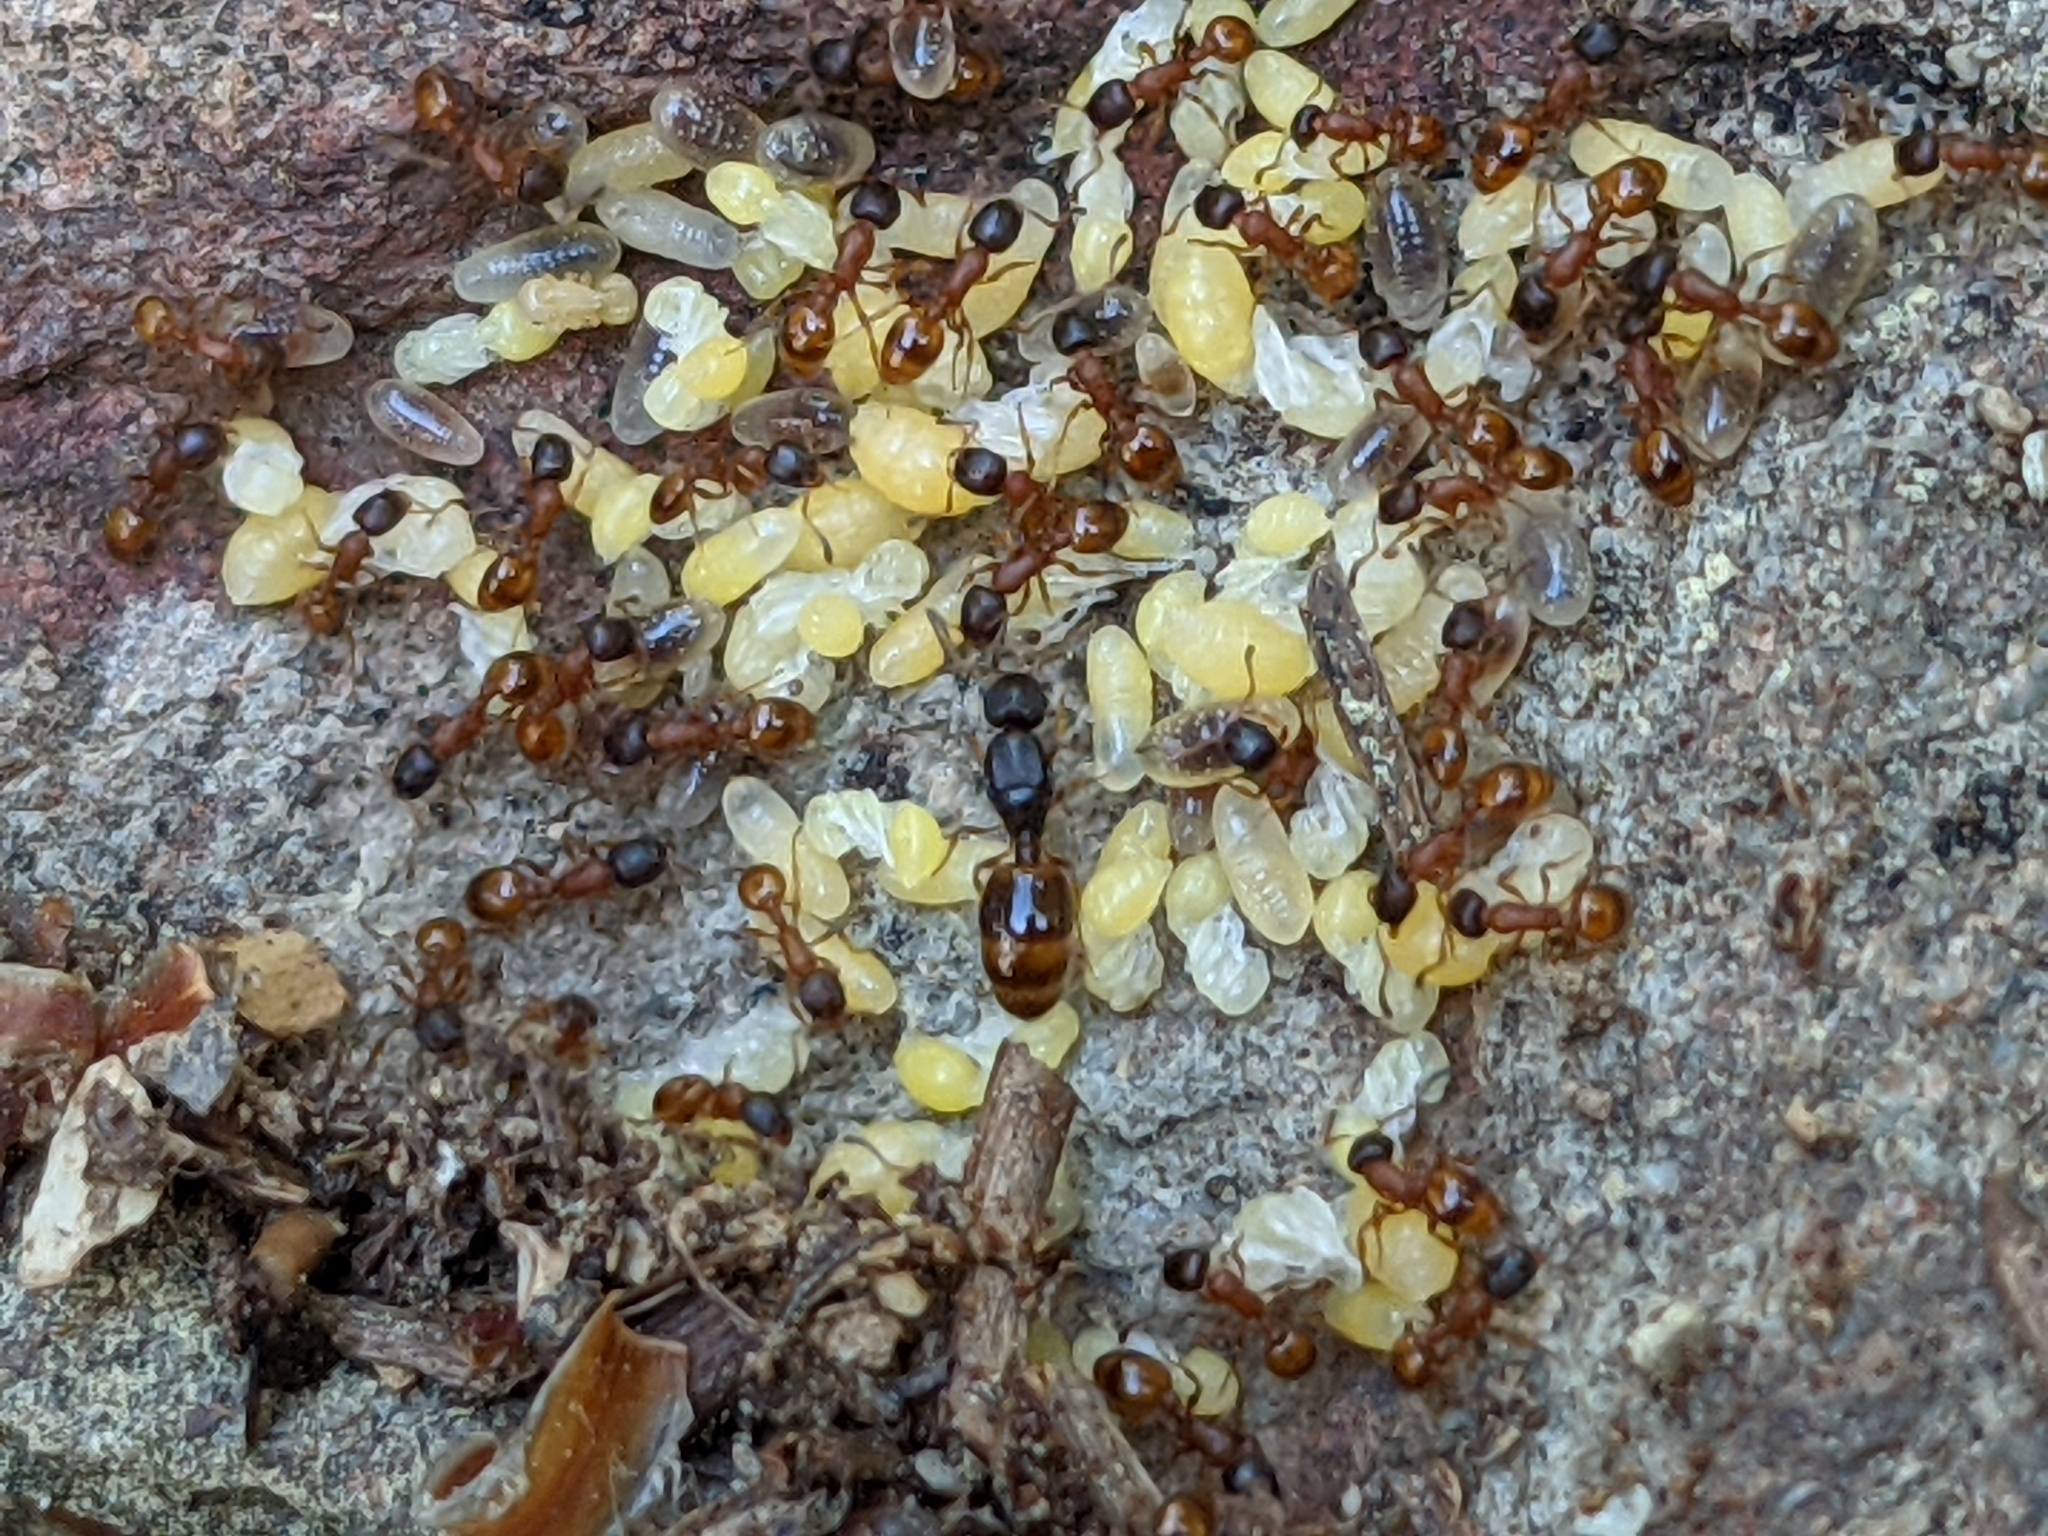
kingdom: Animalia
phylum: Arthropoda
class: Insecta
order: Hymenoptera
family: Formicidae
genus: Leptothorax
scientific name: Leptothorax tuberum
